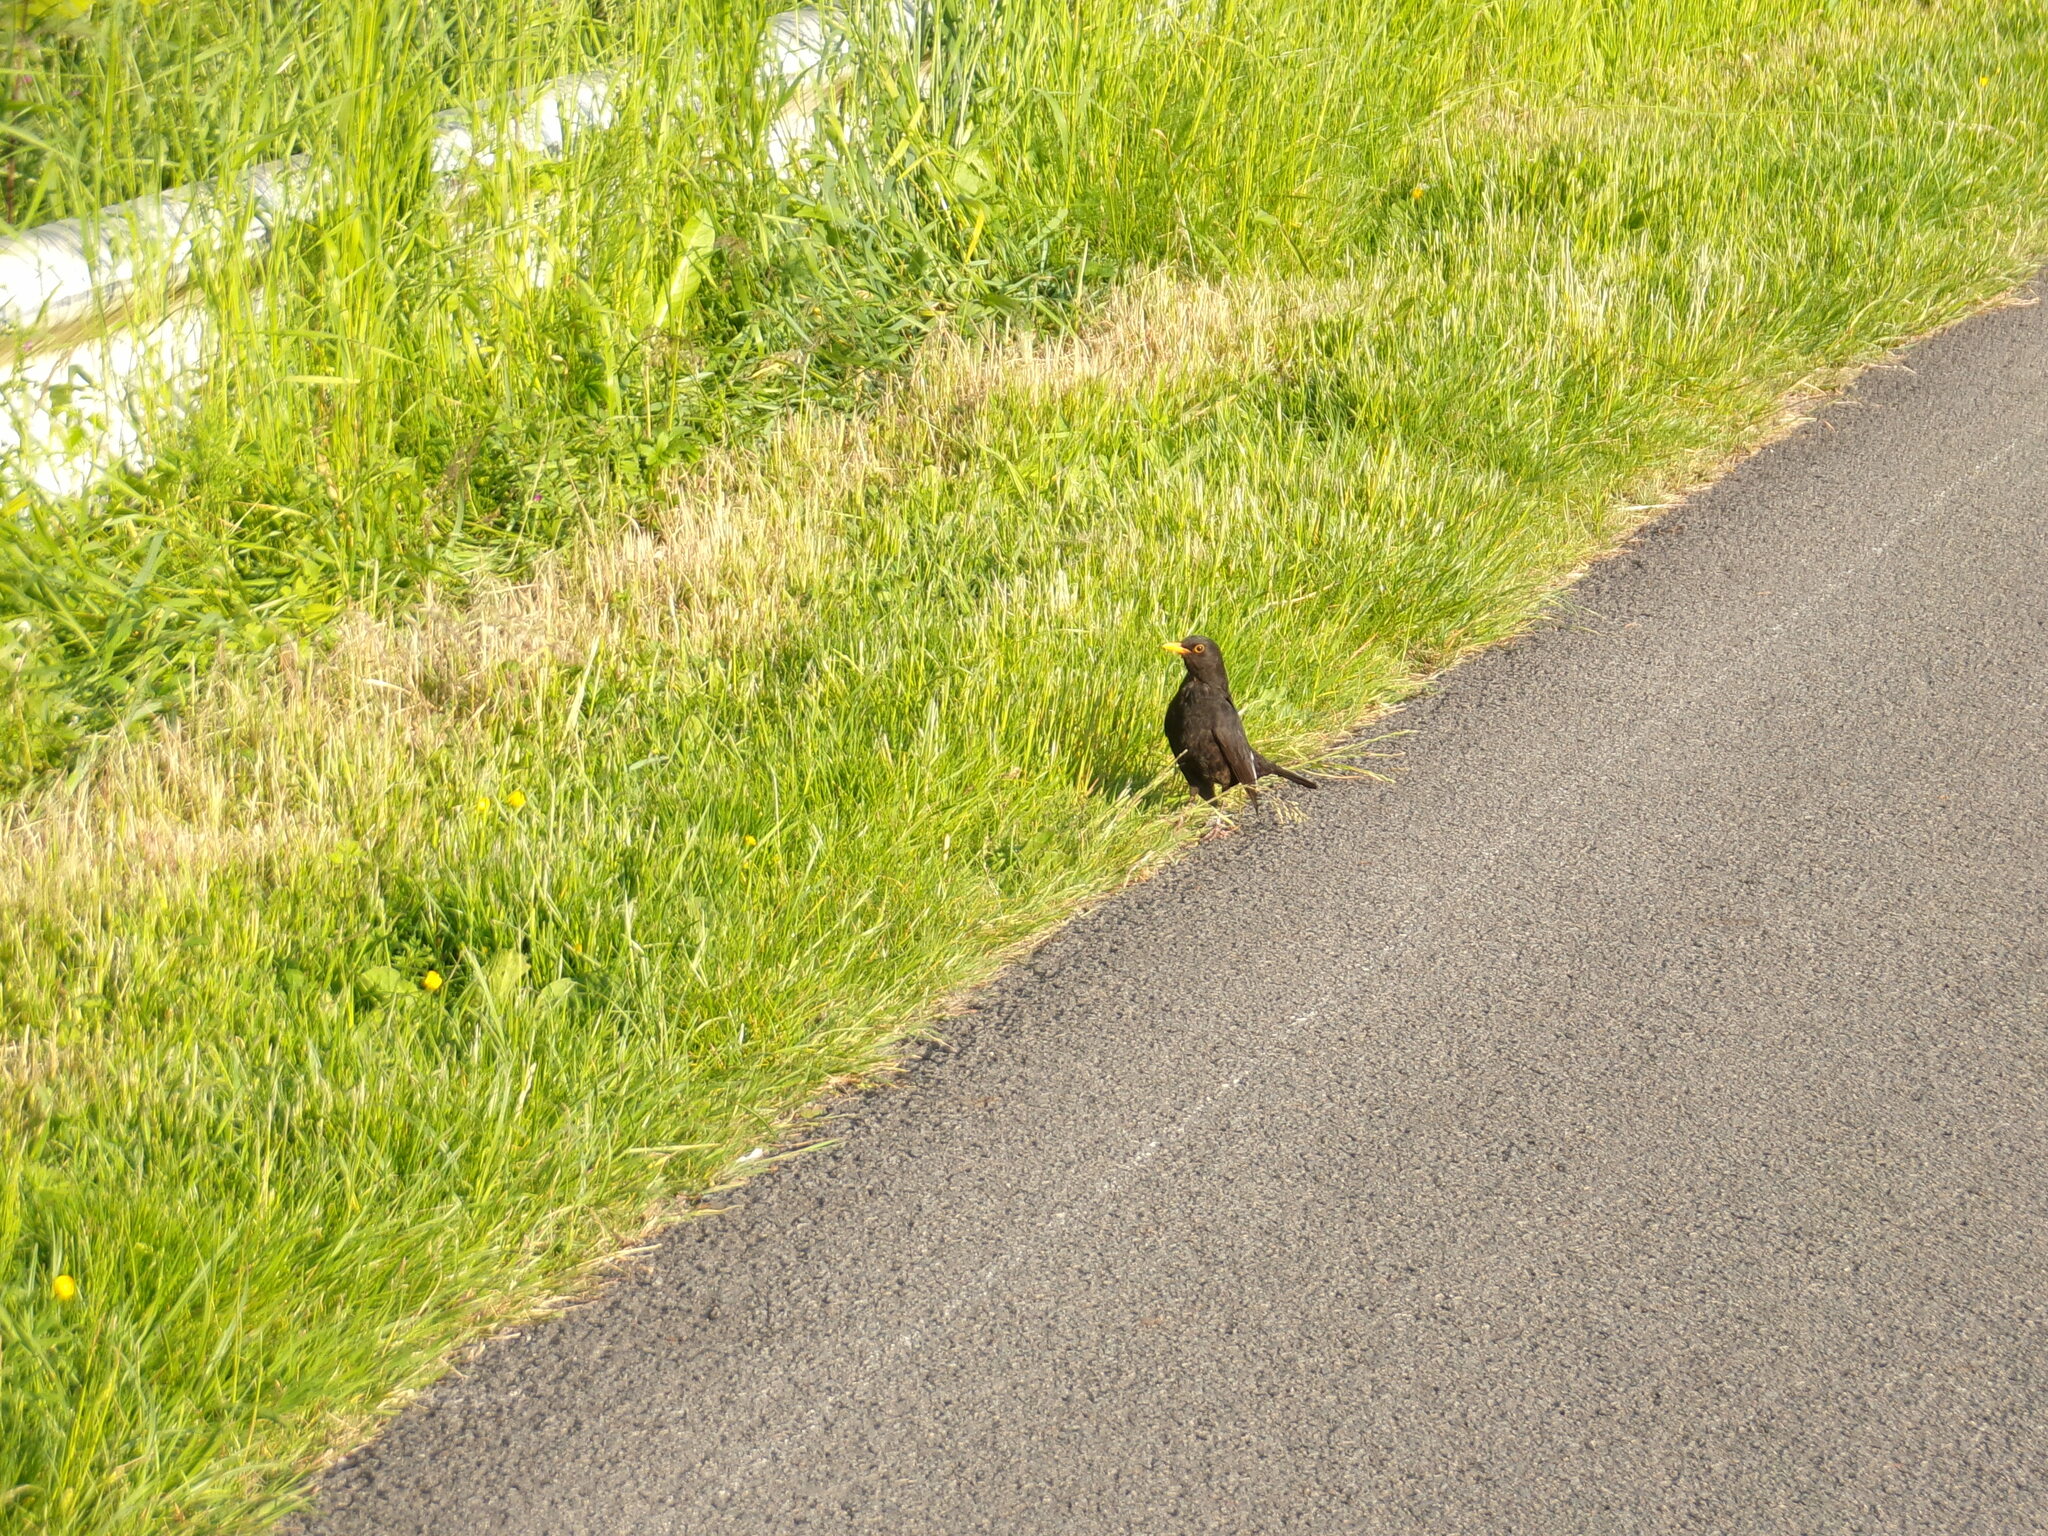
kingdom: Animalia
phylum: Chordata
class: Aves
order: Passeriformes
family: Turdidae
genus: Turdus
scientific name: Turdus merula
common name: Common blackbird
